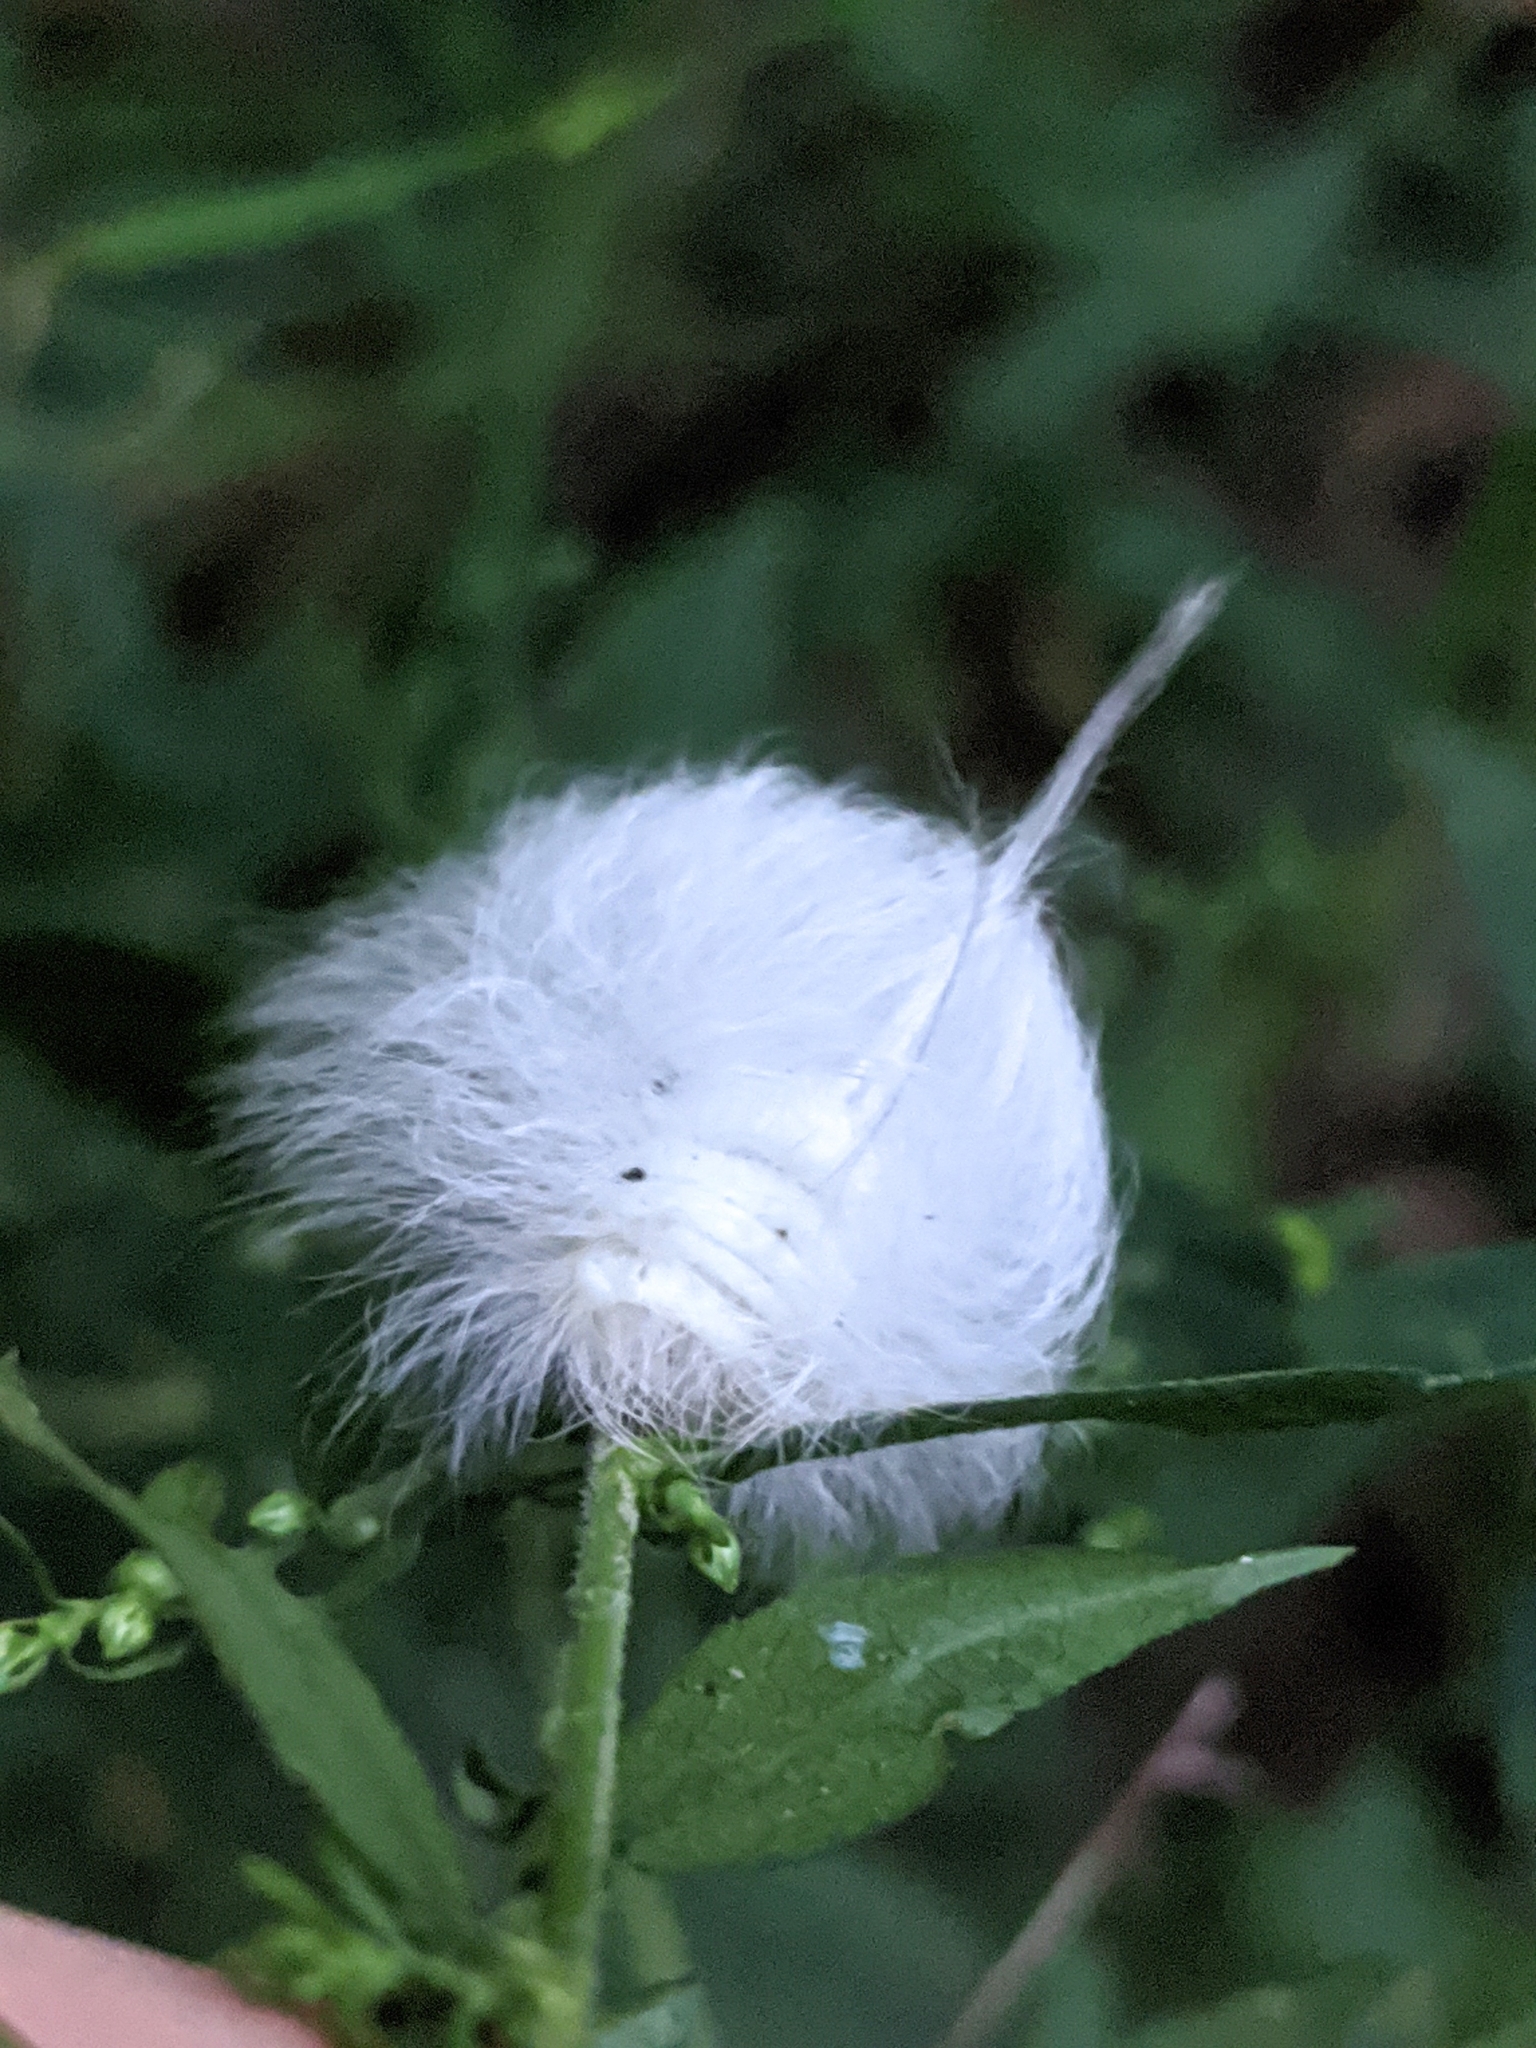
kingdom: Animalia
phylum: Arthropoda
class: Insecta
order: Lepidoptera
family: Apatelodidae
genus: Hygrochroa
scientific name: Hygrochroa Apatelodes torrefacta
